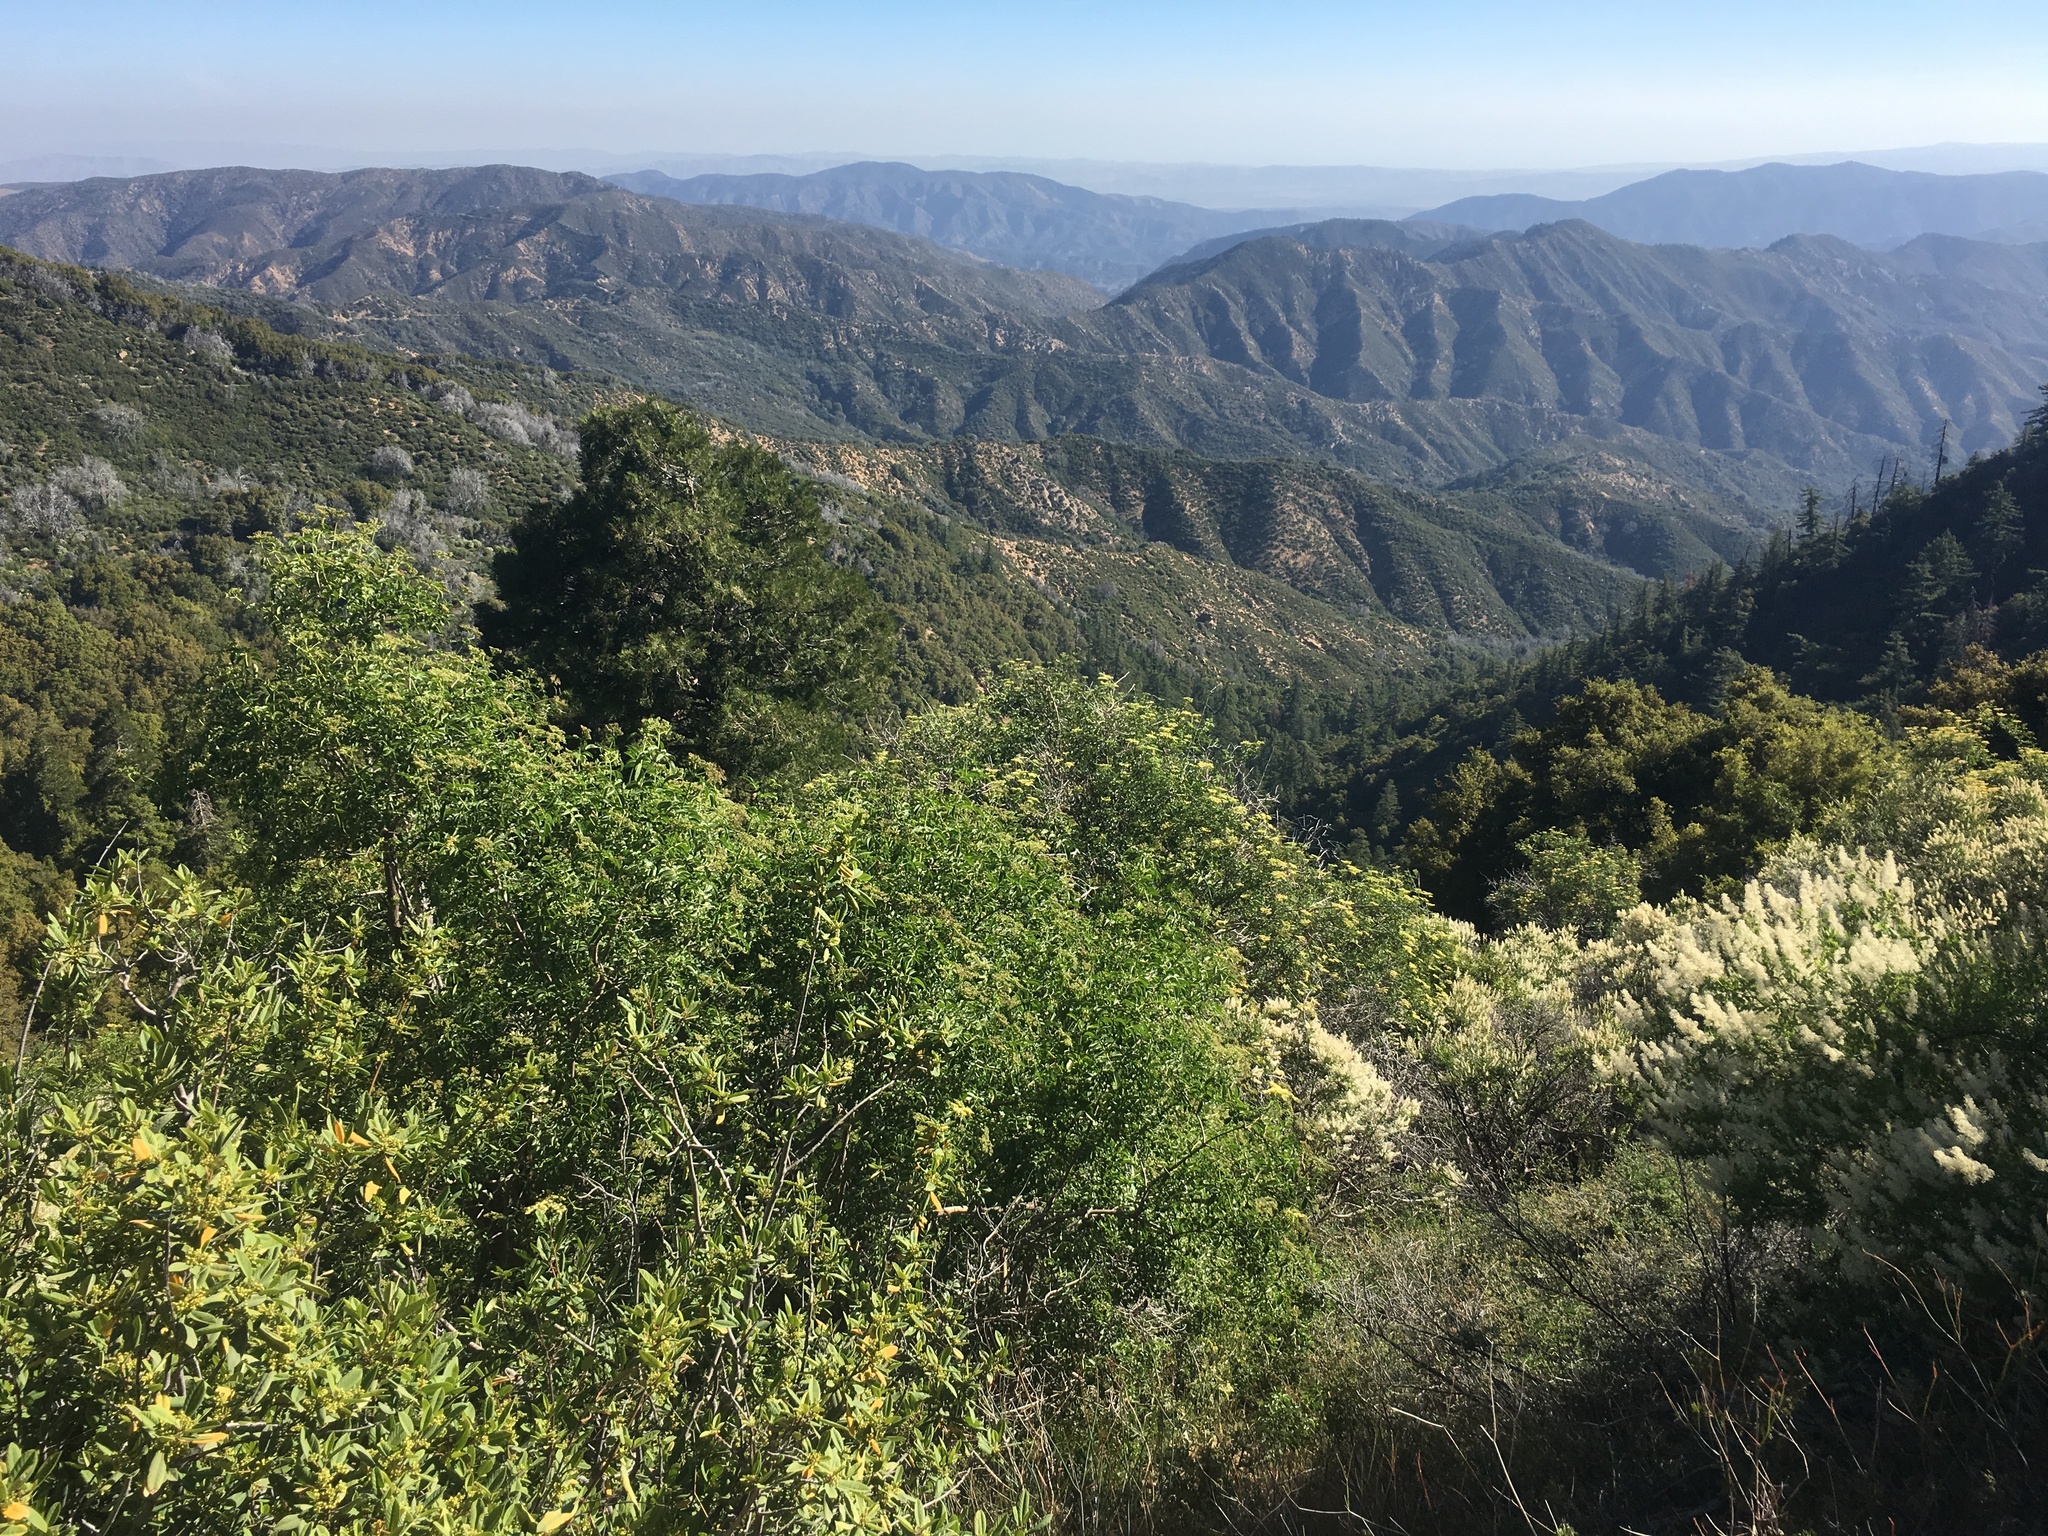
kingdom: Plantae
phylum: Tracheophyta
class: Pinopsida
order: Pinales
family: Cupressaceae
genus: Calocedrus
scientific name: Calocedrus decurrens
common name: Californian incense-cedar
